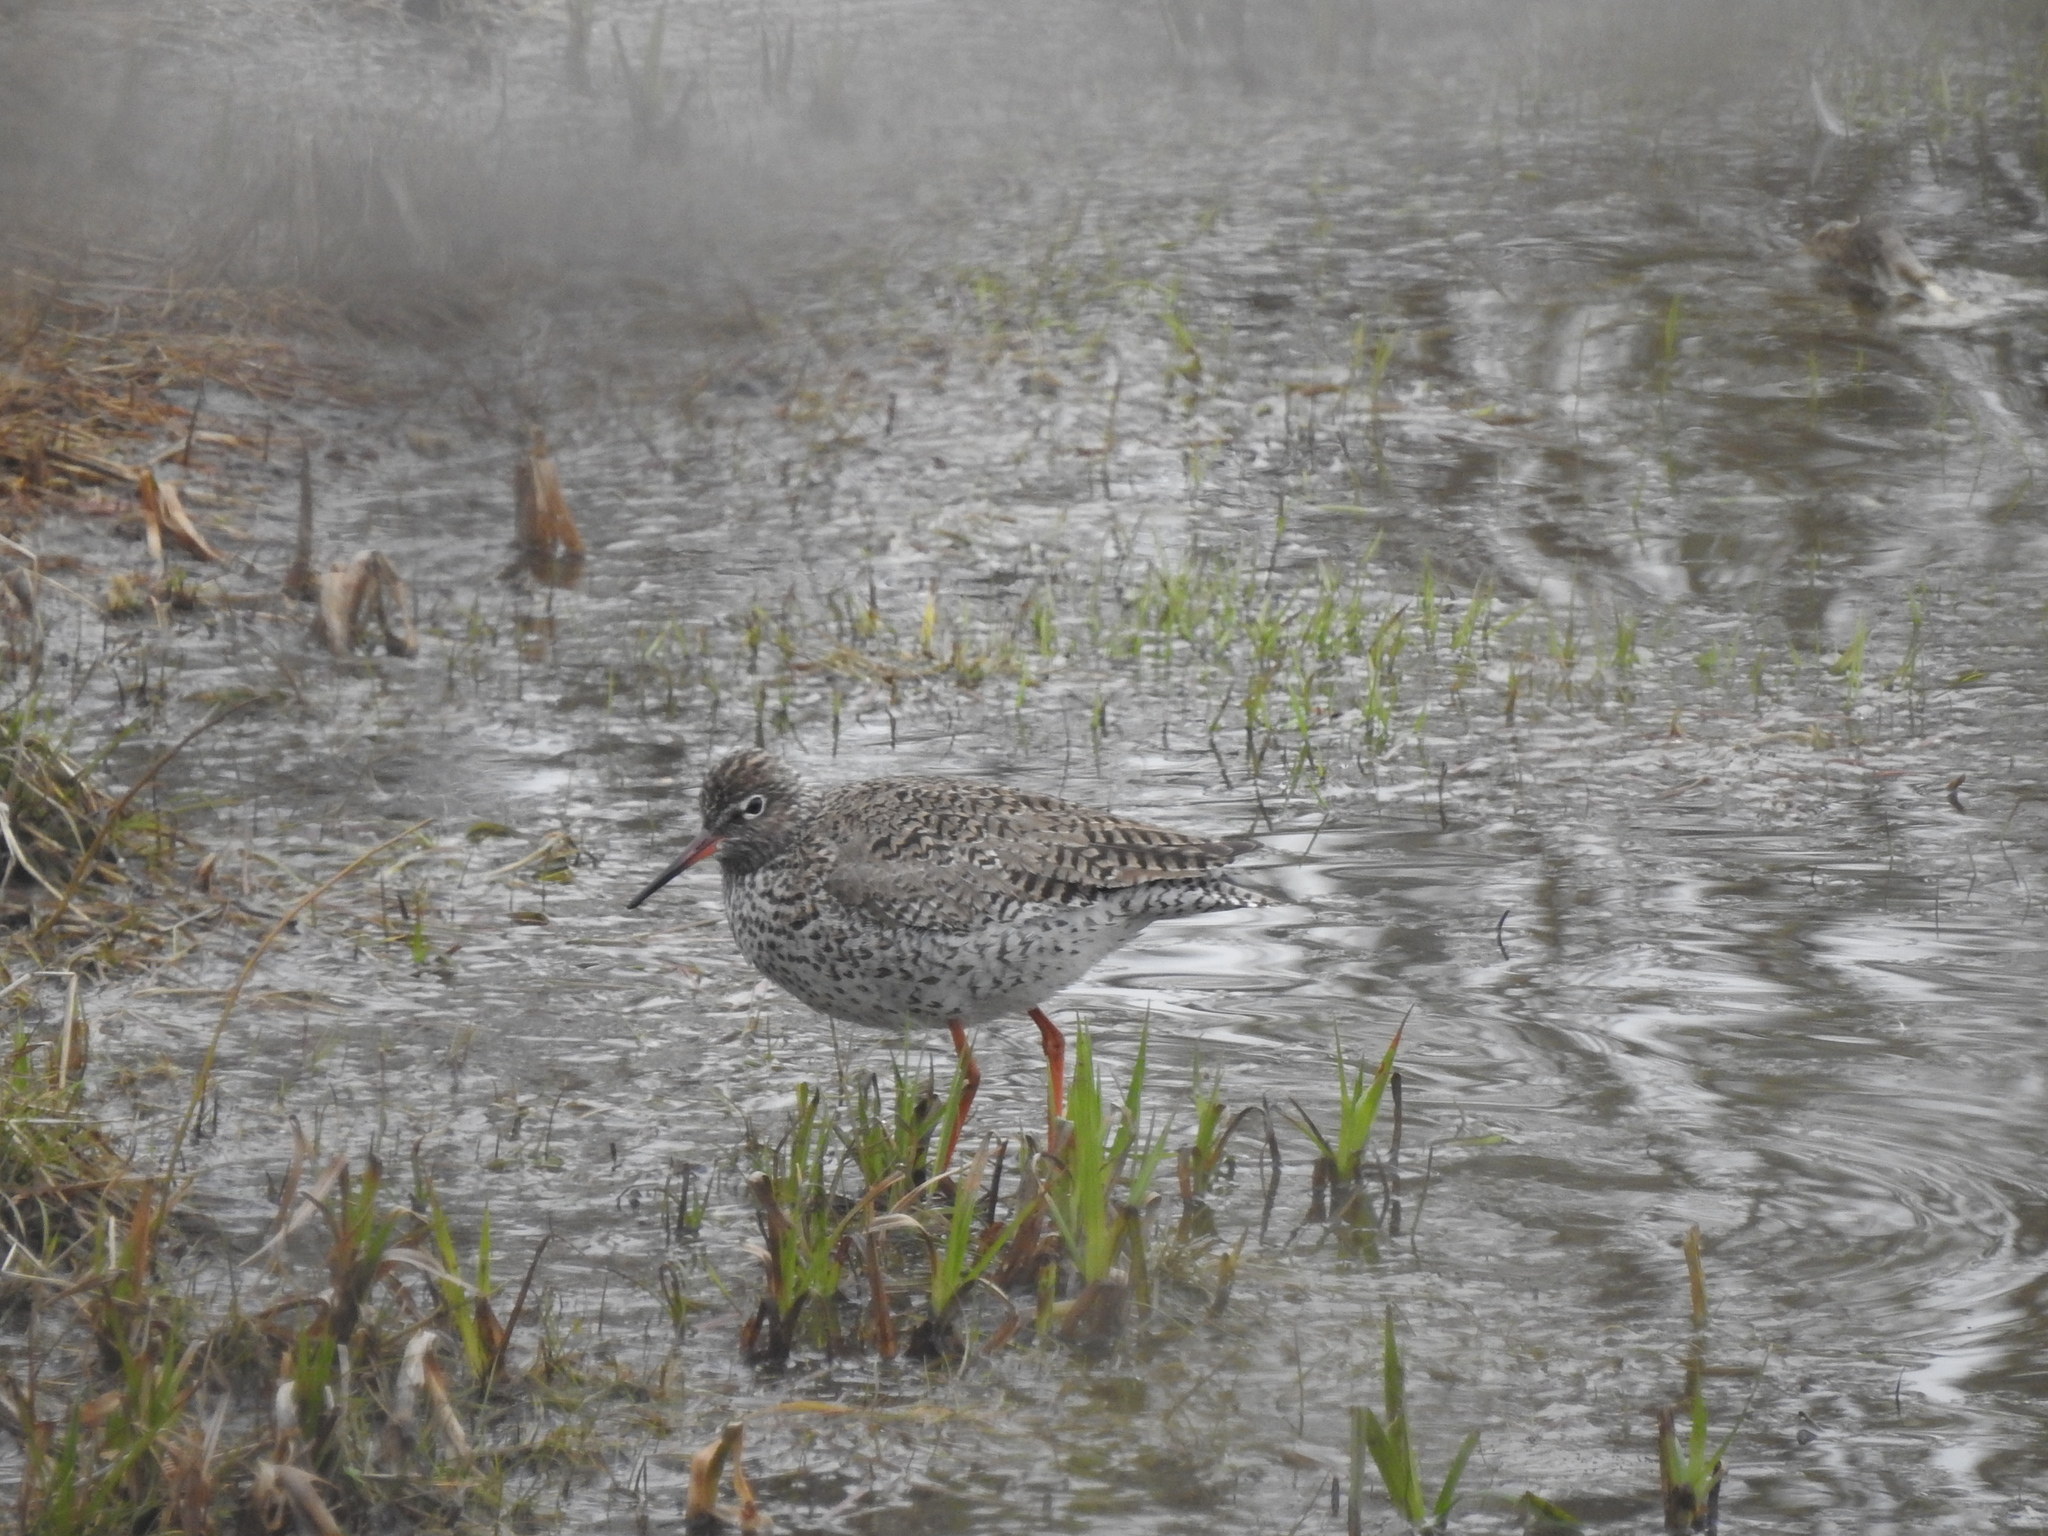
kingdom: Animalia
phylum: Chordata
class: Aves
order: Charadriiformes
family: Scolopacidae
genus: Tringa
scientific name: Tringa totanus
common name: Common redshank
